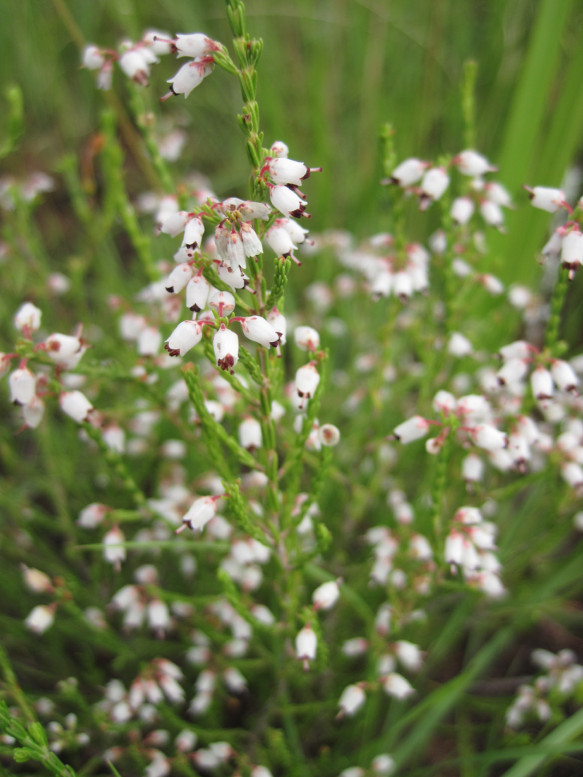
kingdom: Plantae
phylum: Tracheophyta
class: Magnoliopsida
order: Ericales
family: Ericaceae
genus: Erica
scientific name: Erica drakensbergensis
